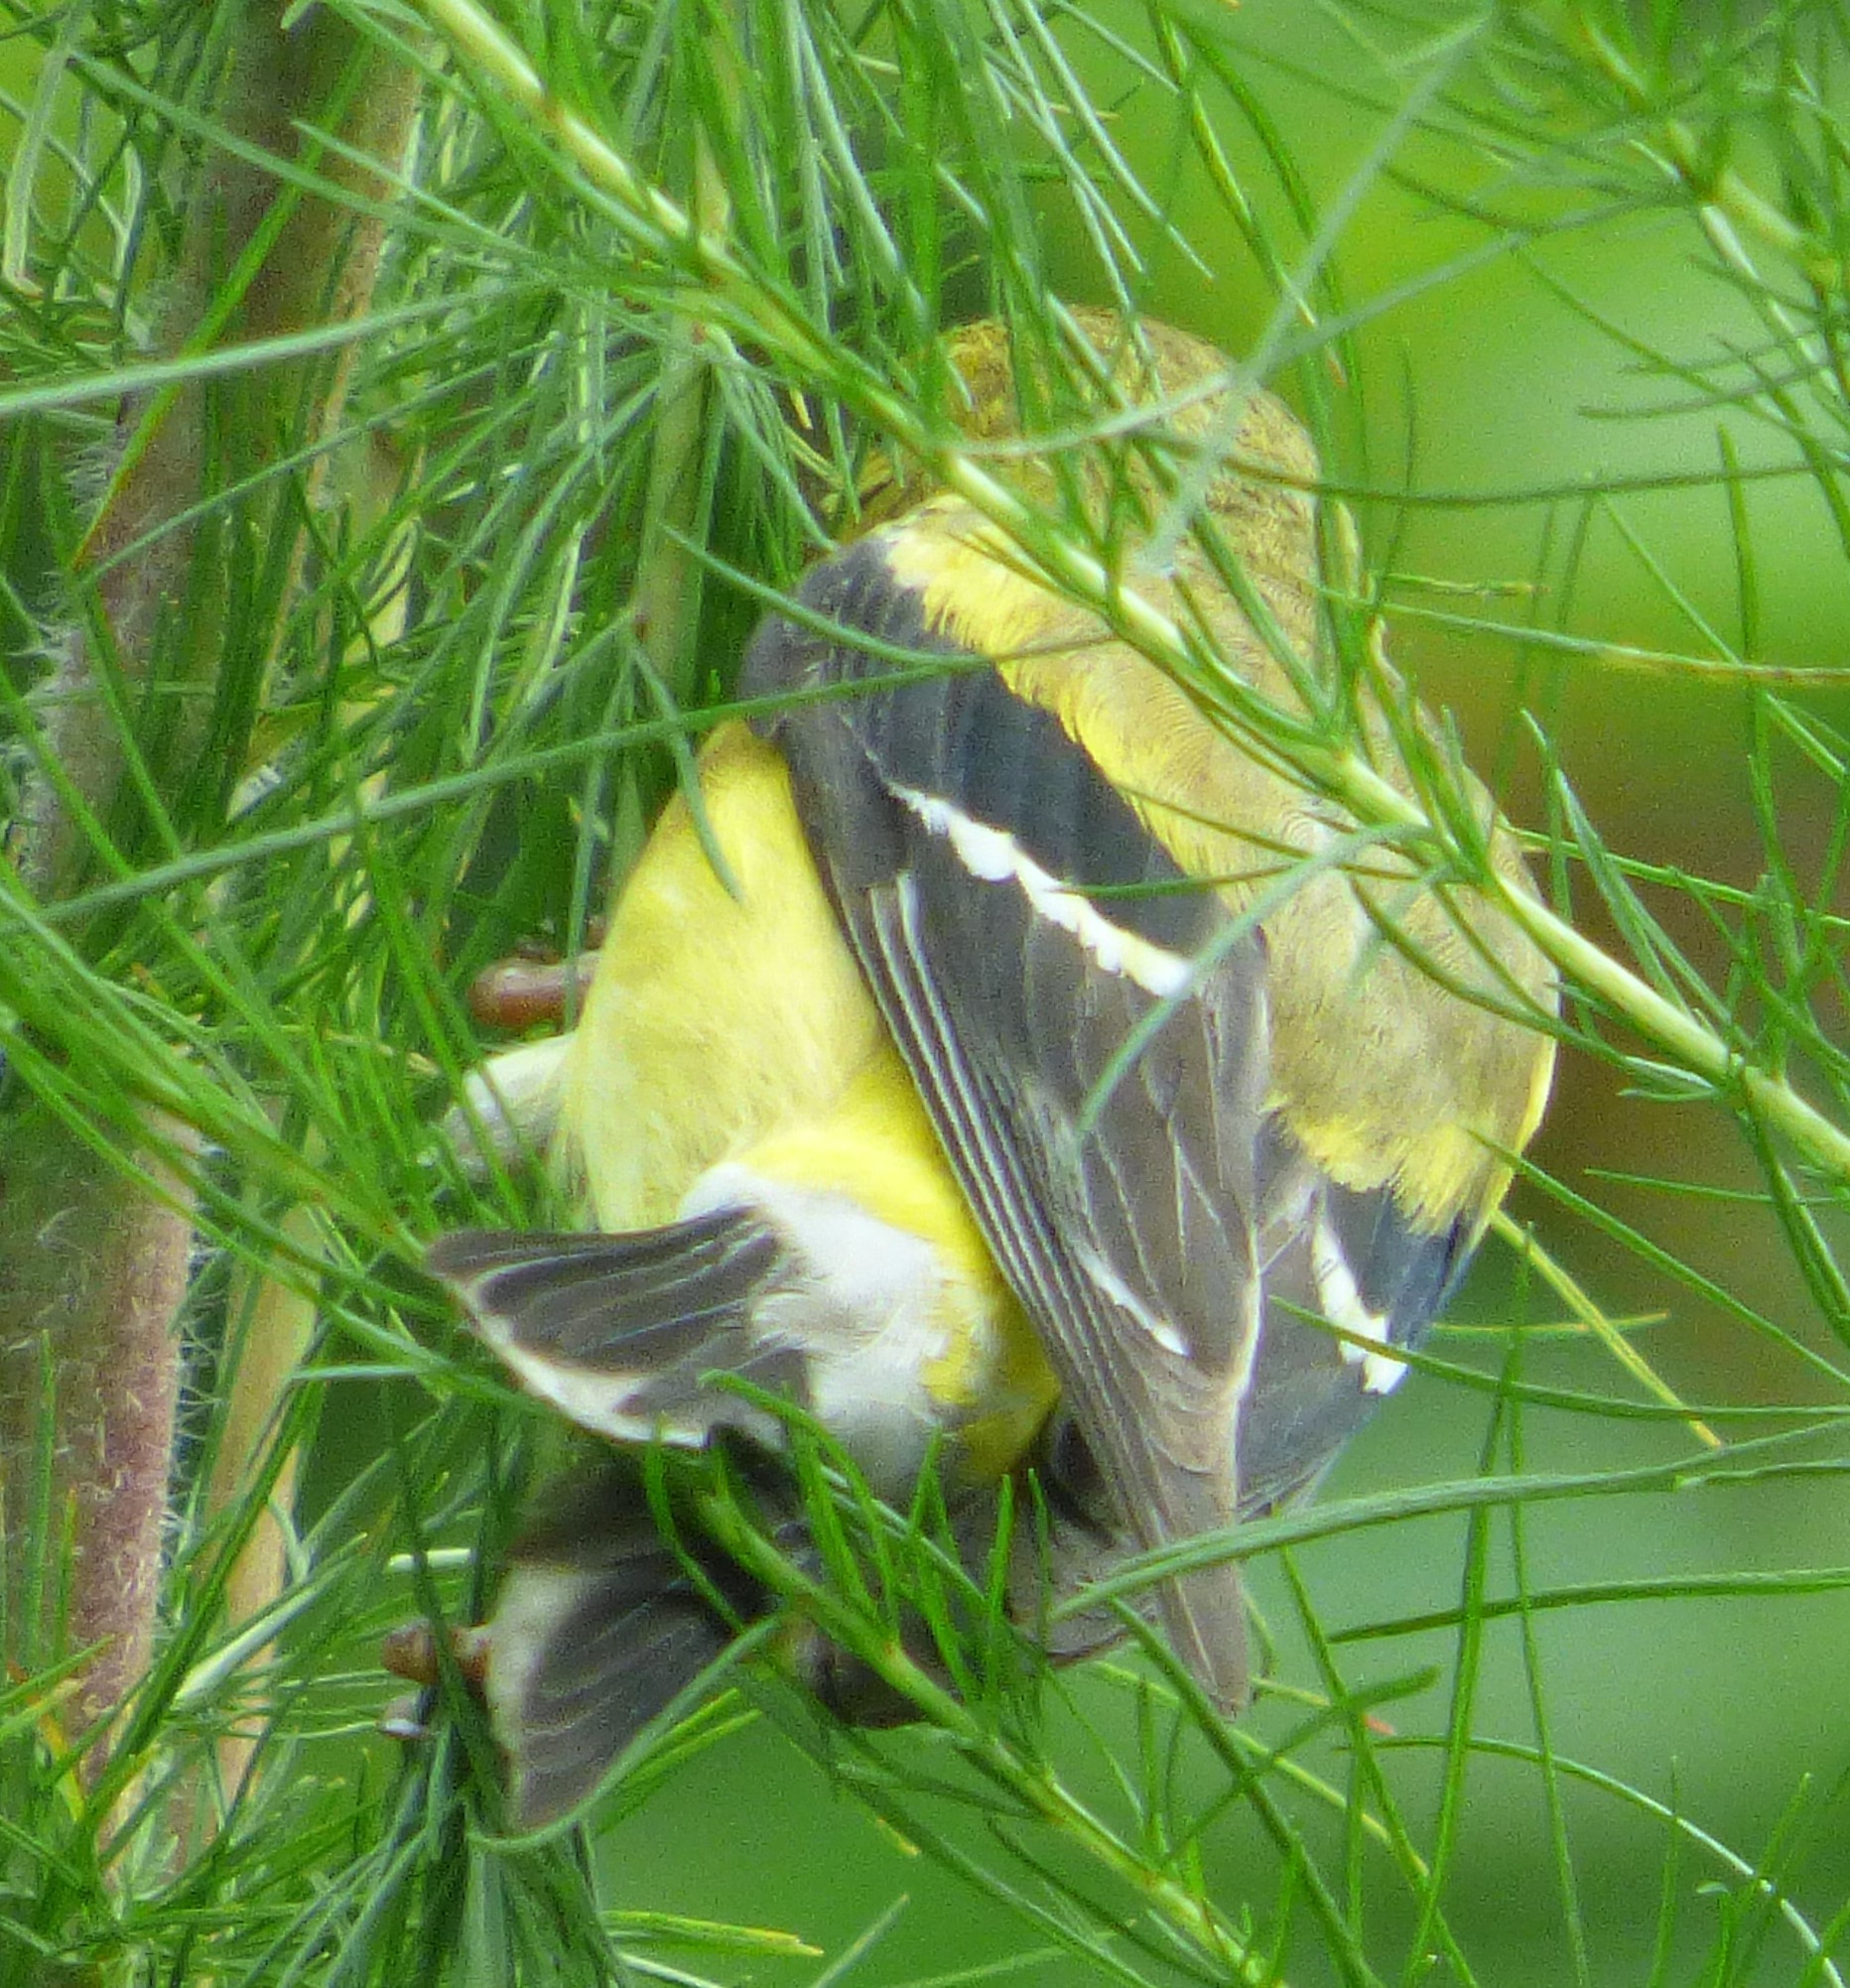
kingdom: Animalia
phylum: Chordata
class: Aves
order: Passeriformes
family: Fringillidae
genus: Spinus
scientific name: Spinus tristis
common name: American goldfinch
